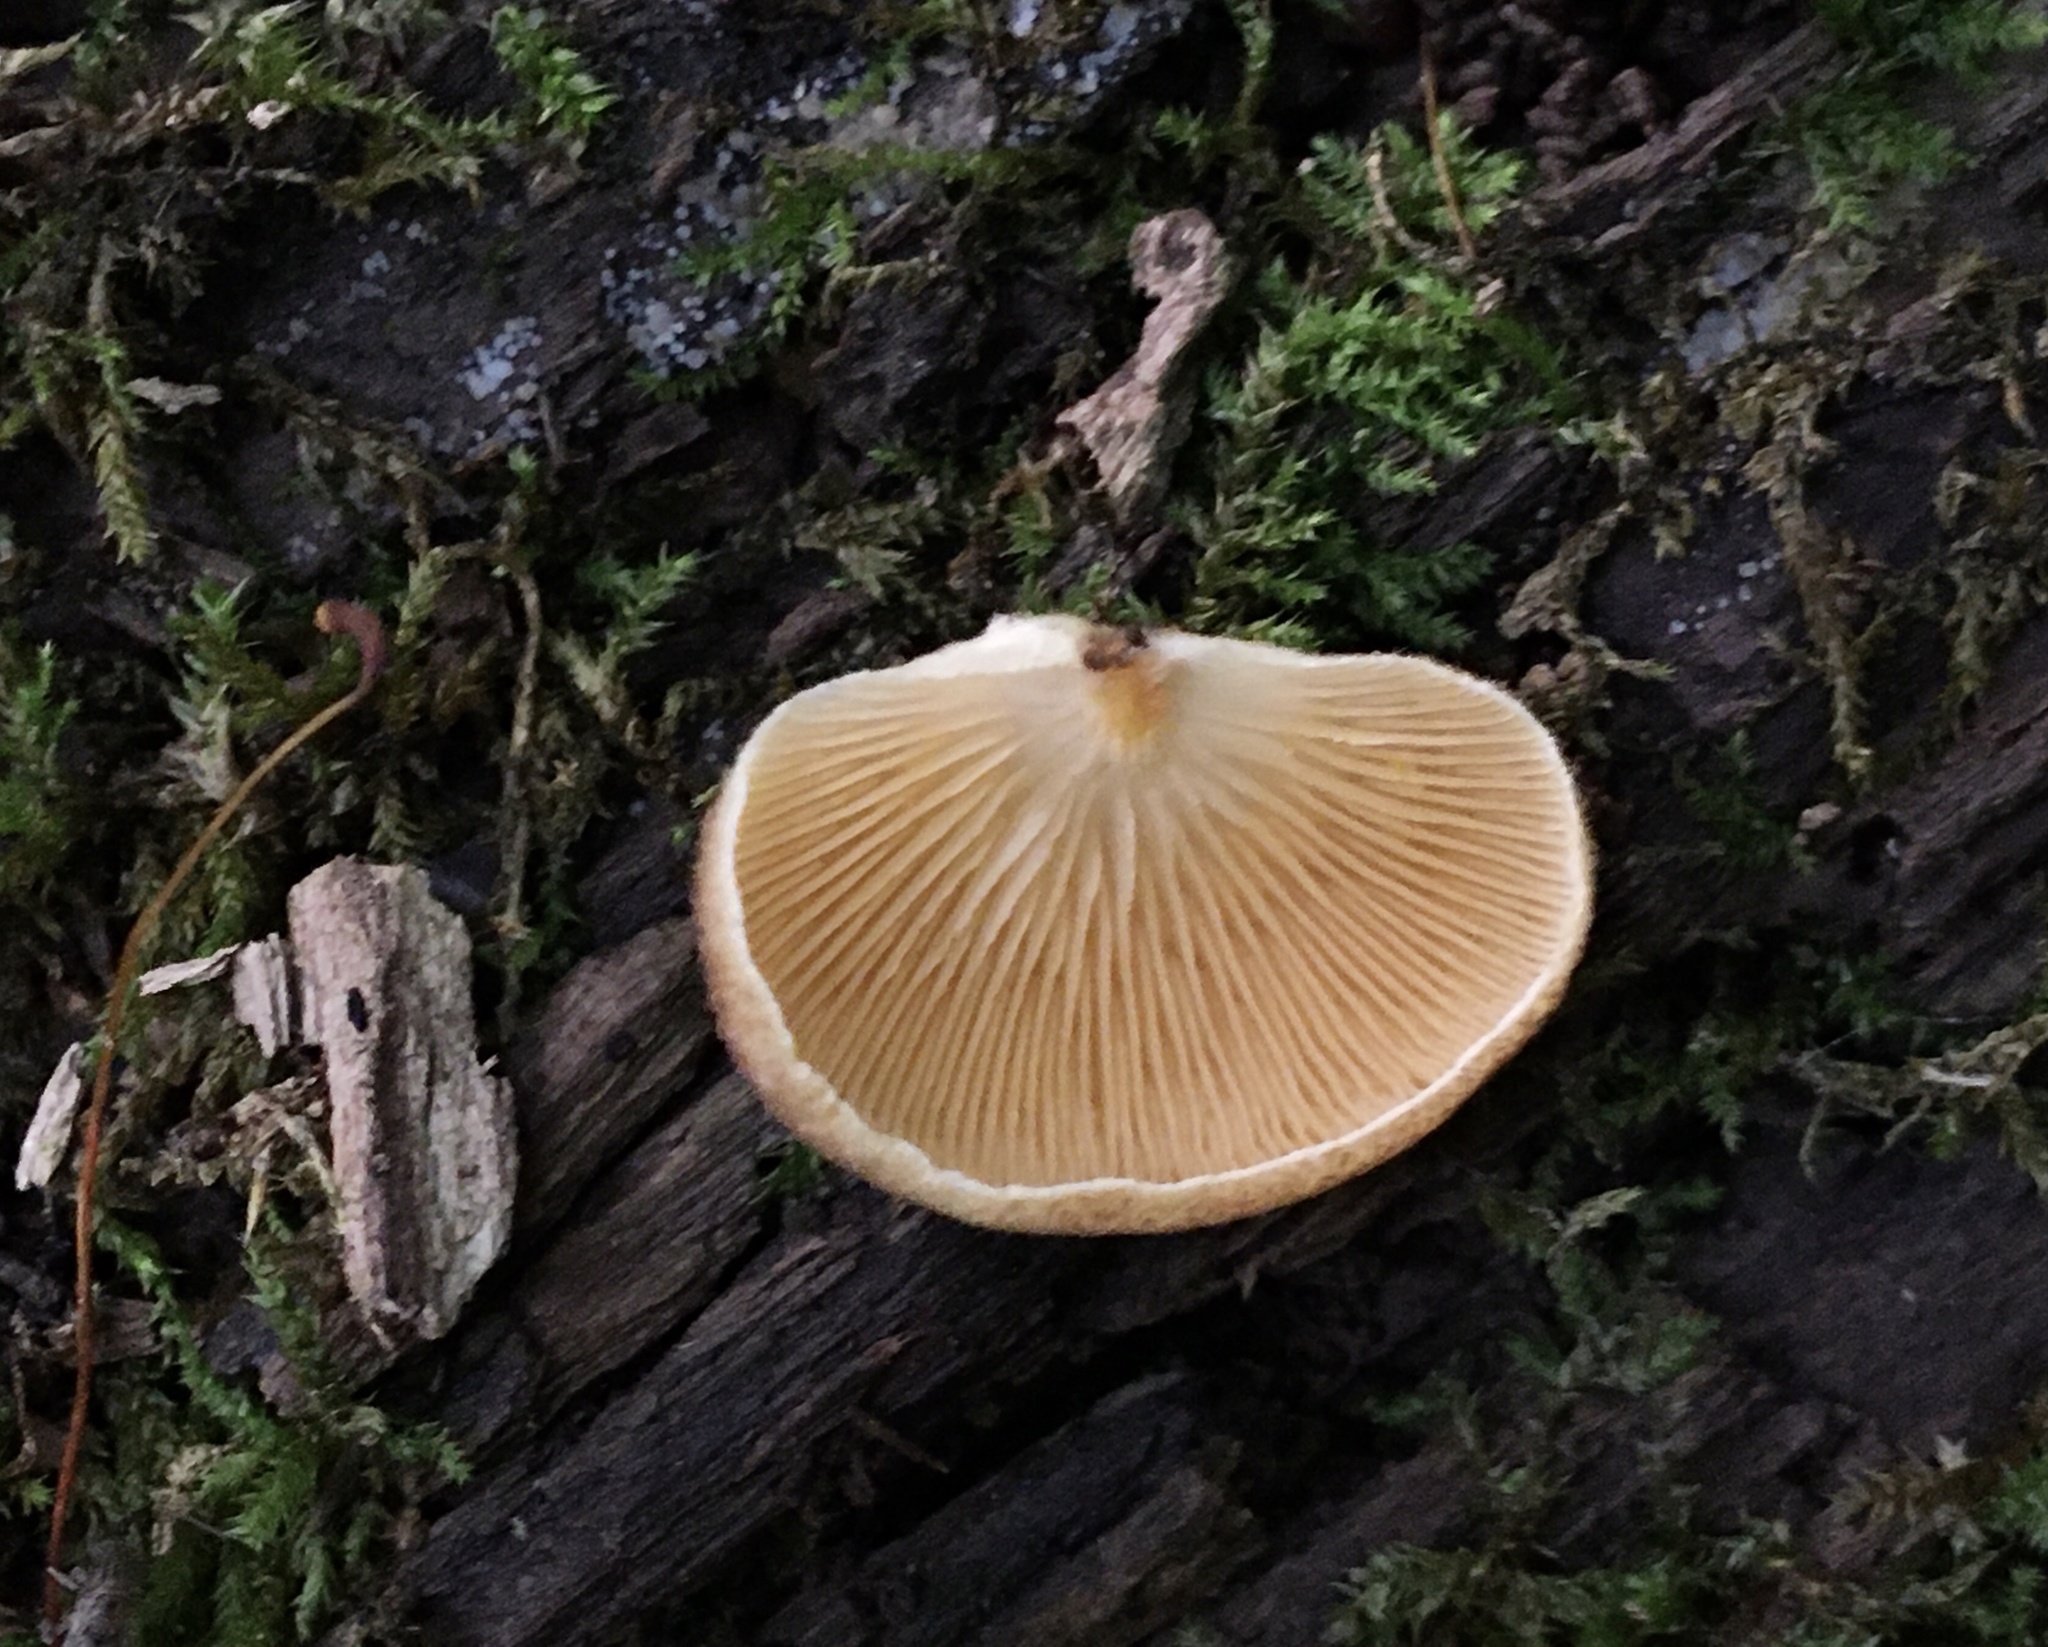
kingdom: Fungi
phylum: Basidiomycota
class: Agaricomycetes
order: Agaricales
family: Crepidotaceae
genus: Crepidotus
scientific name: Crepidotus crocophyllus
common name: Saffron oysterling
